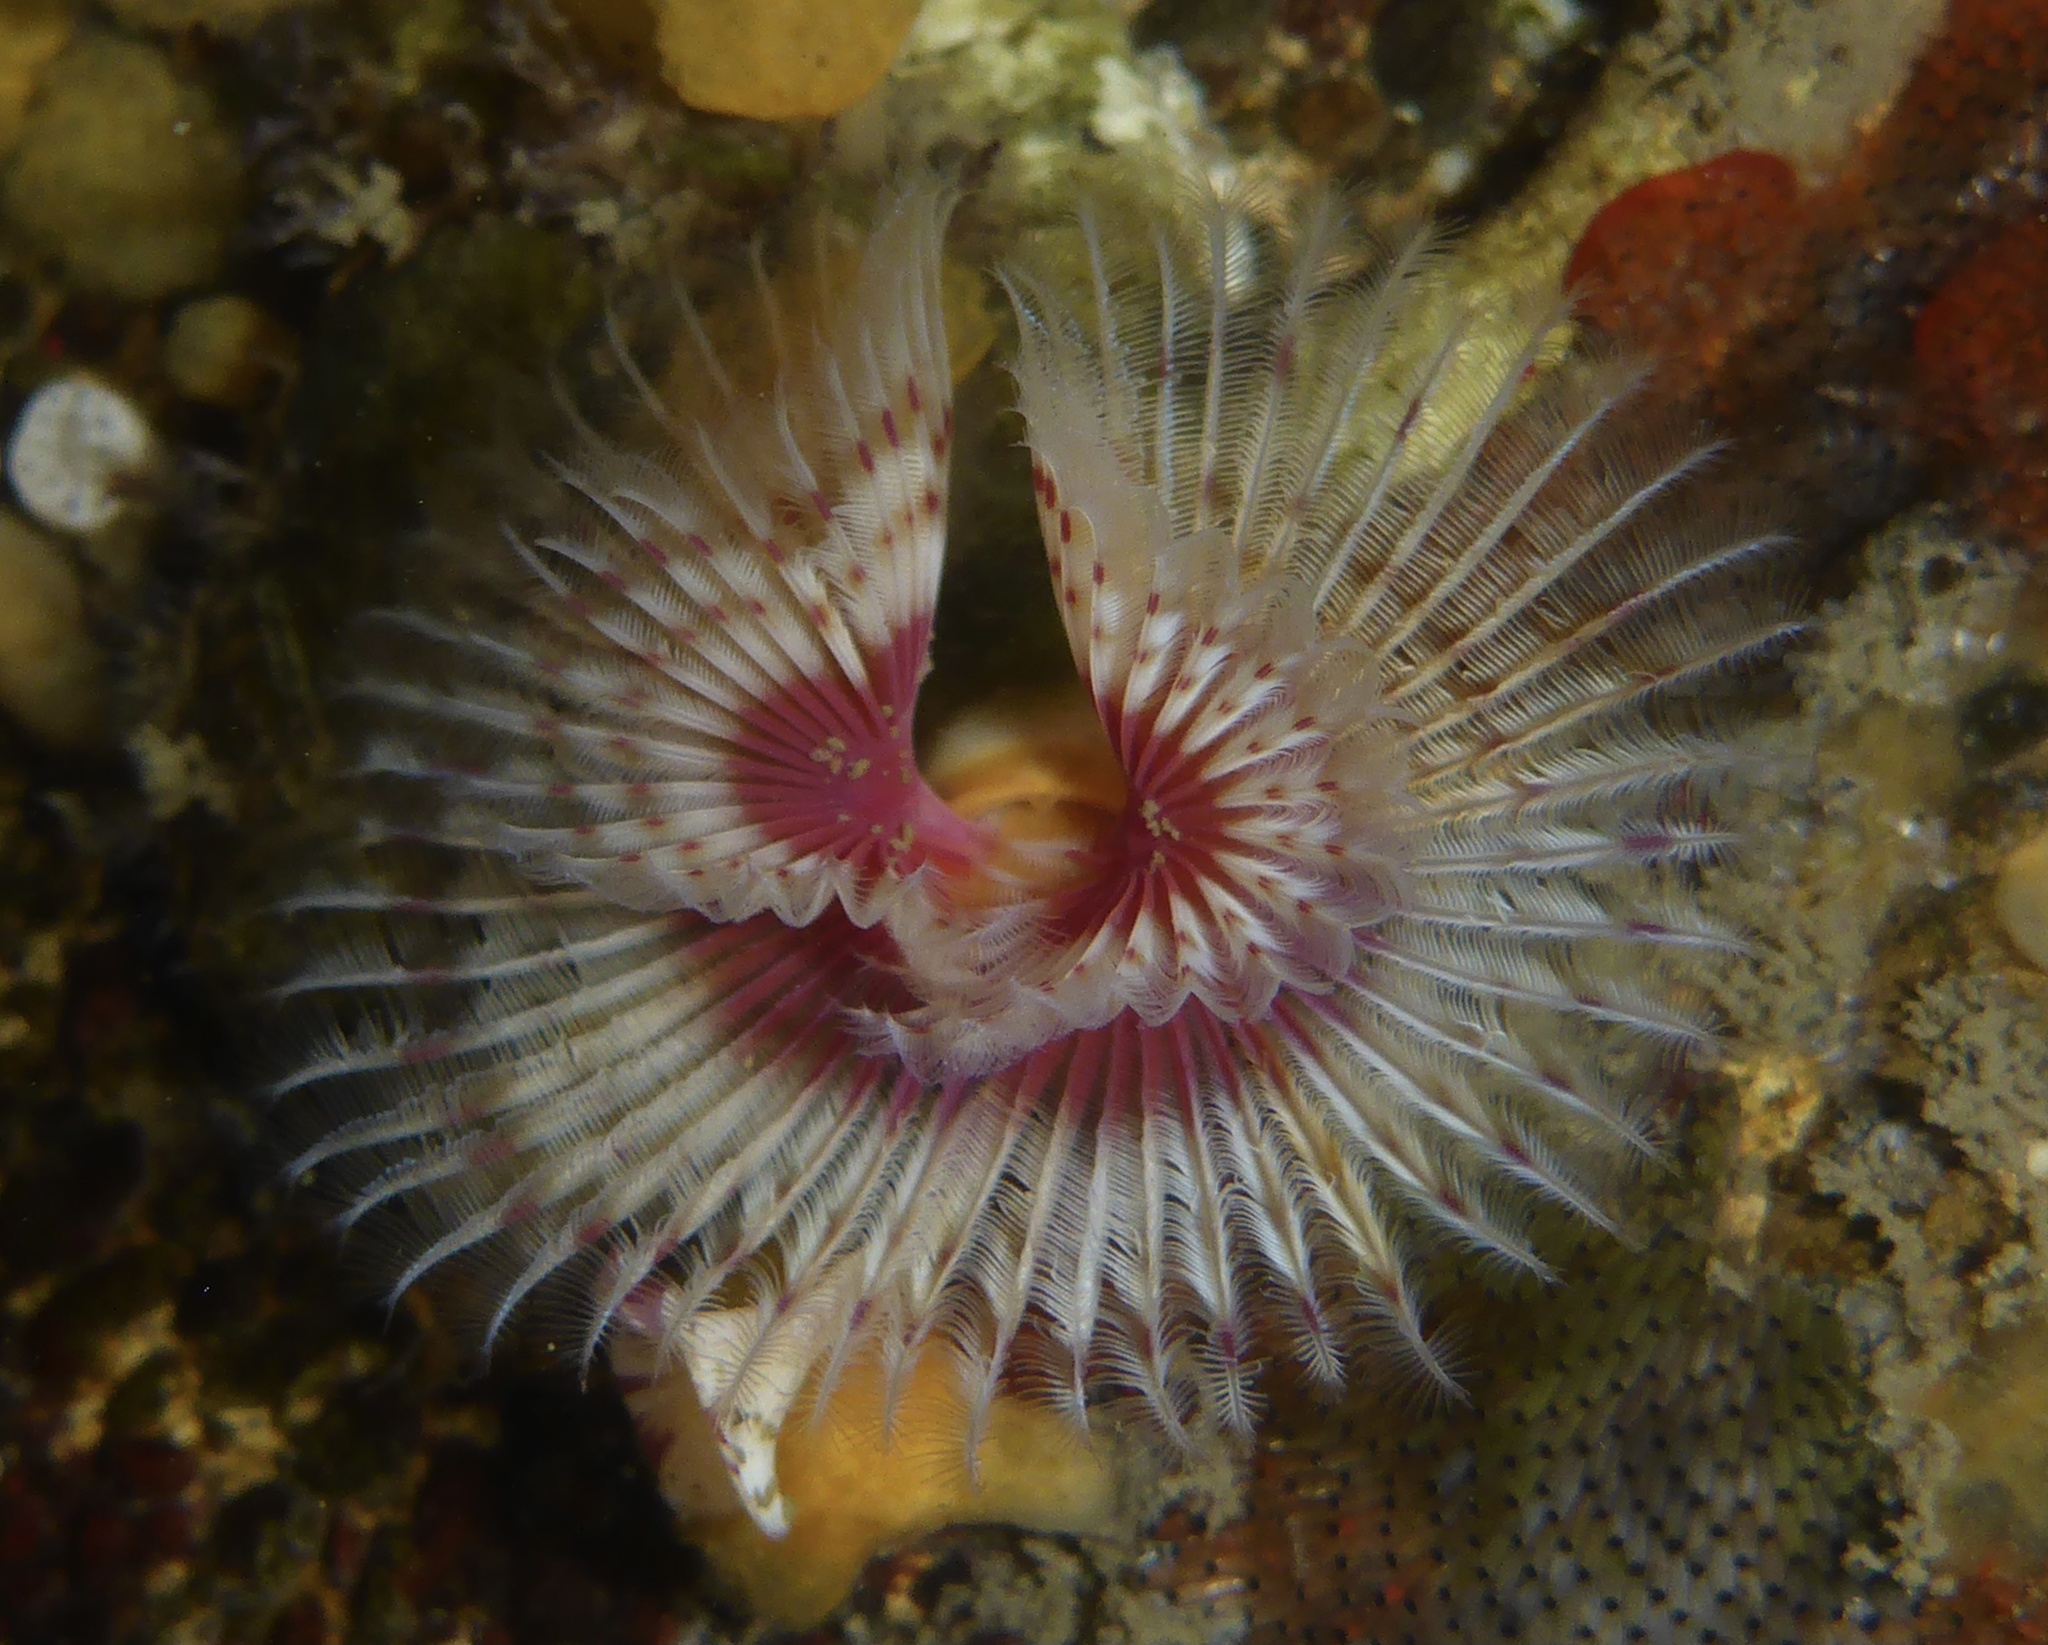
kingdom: Animalia
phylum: Annelida
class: Polychaeta
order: Sabellida
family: Serpulidae
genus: Serpula
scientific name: Serpula columbiana
